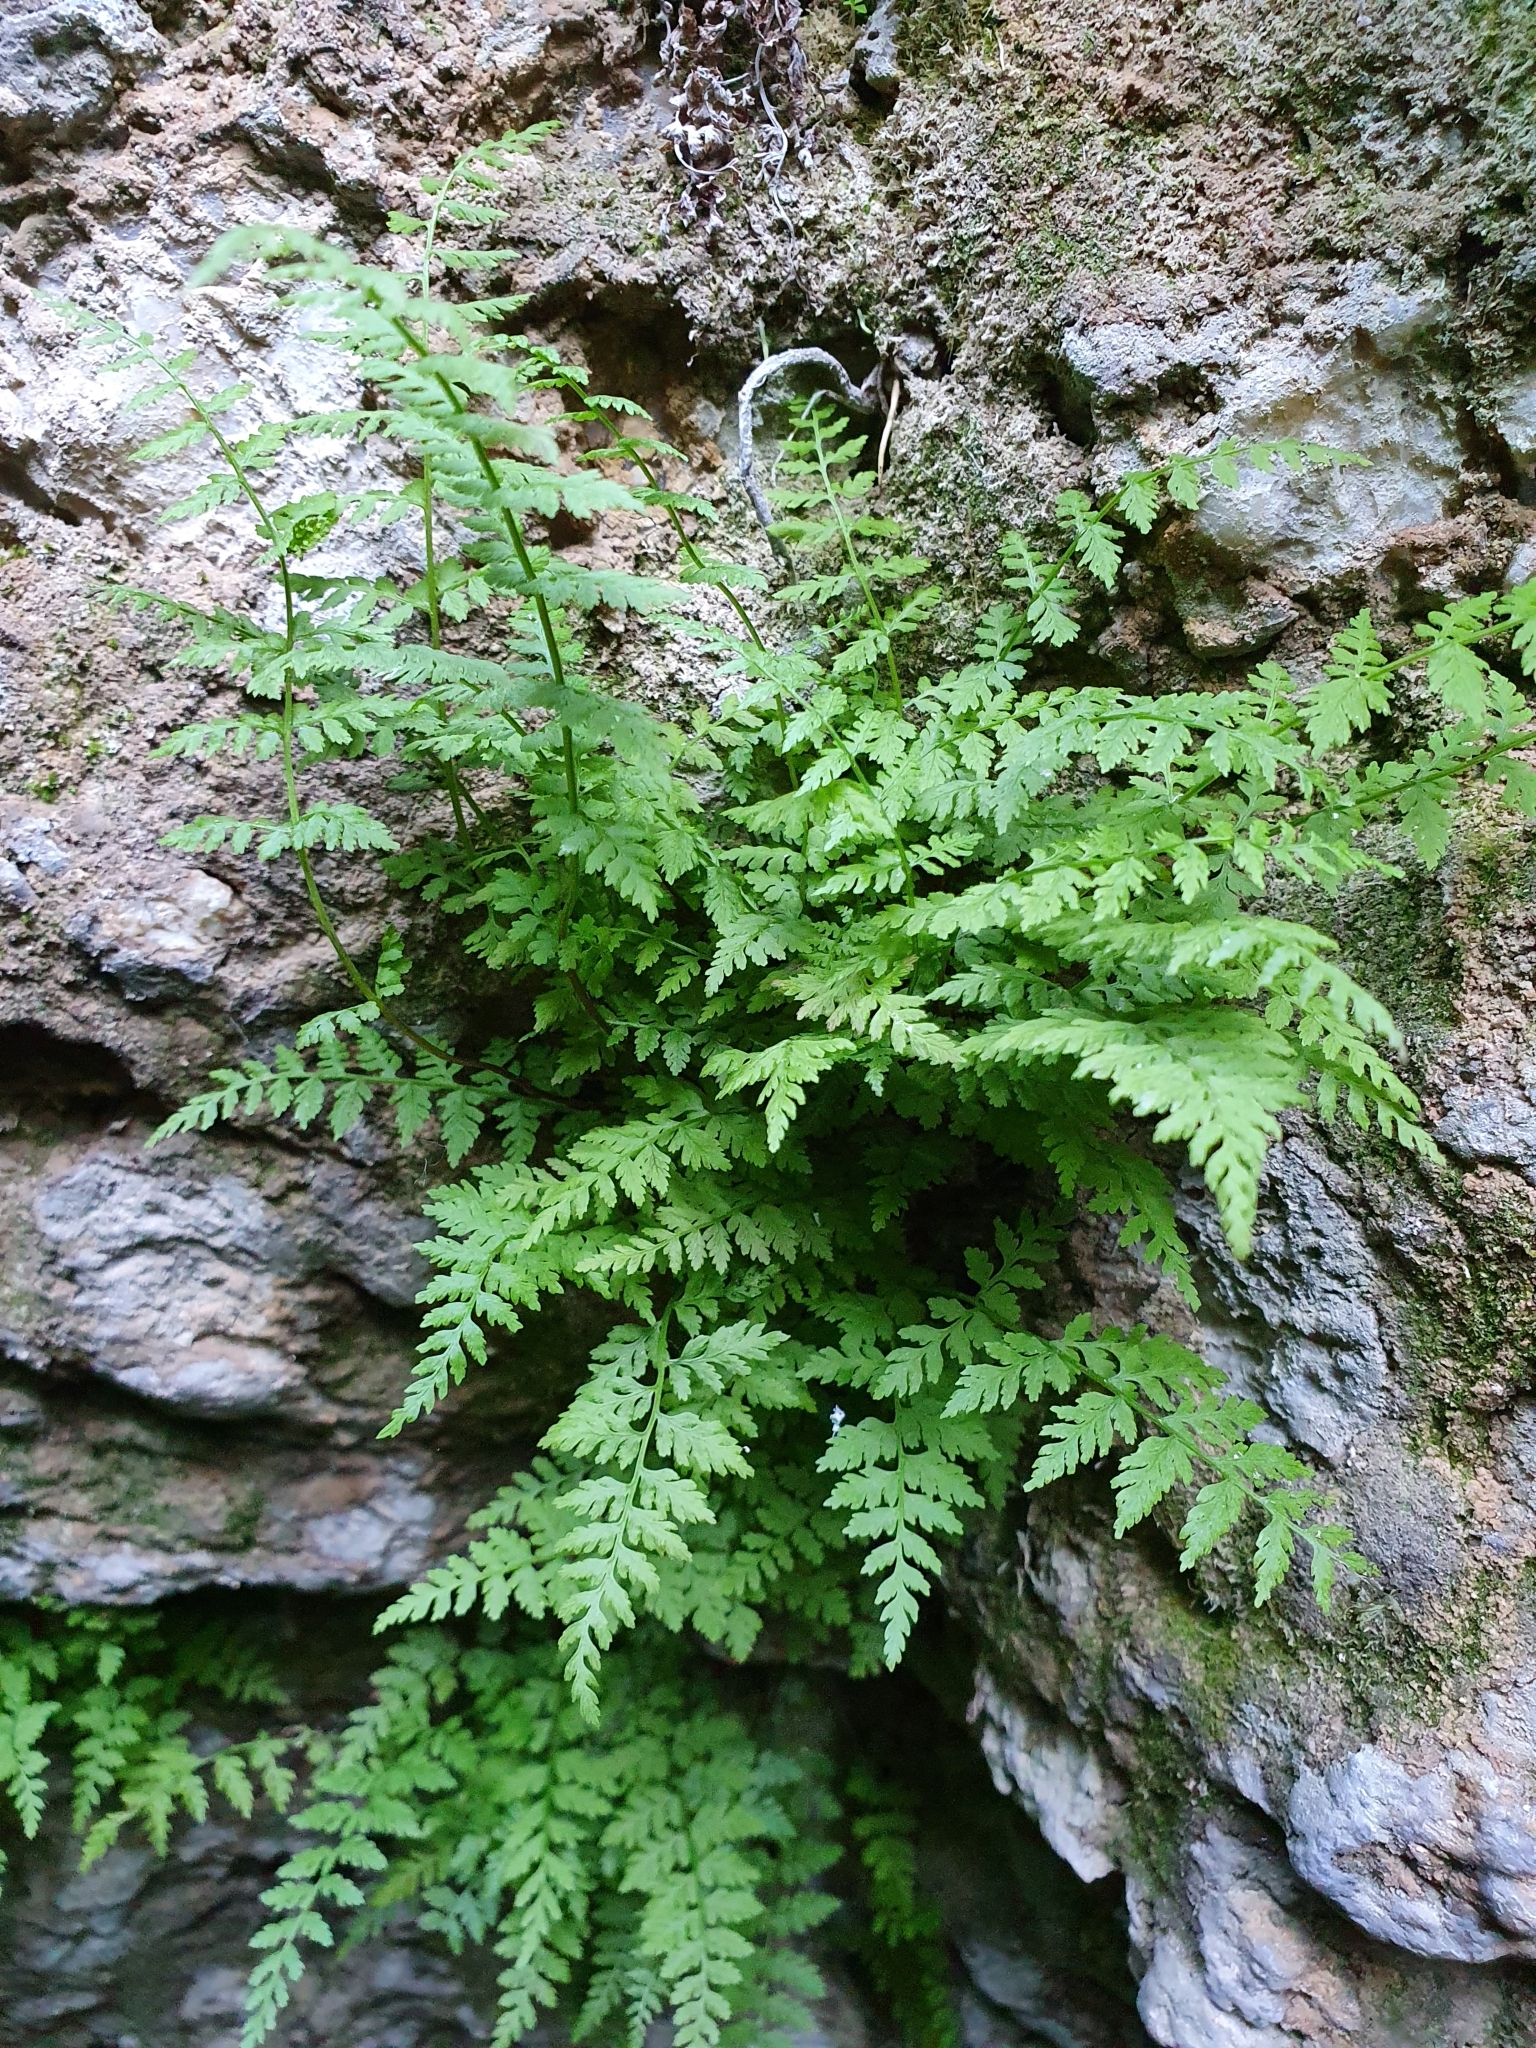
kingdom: Plantae
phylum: Tracheophyta
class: Polypodiopsida
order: Polypodiales
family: Cystopteridaceae
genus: Cystopteris
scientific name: Cystopteris fragilis
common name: Brittle bladder fern
